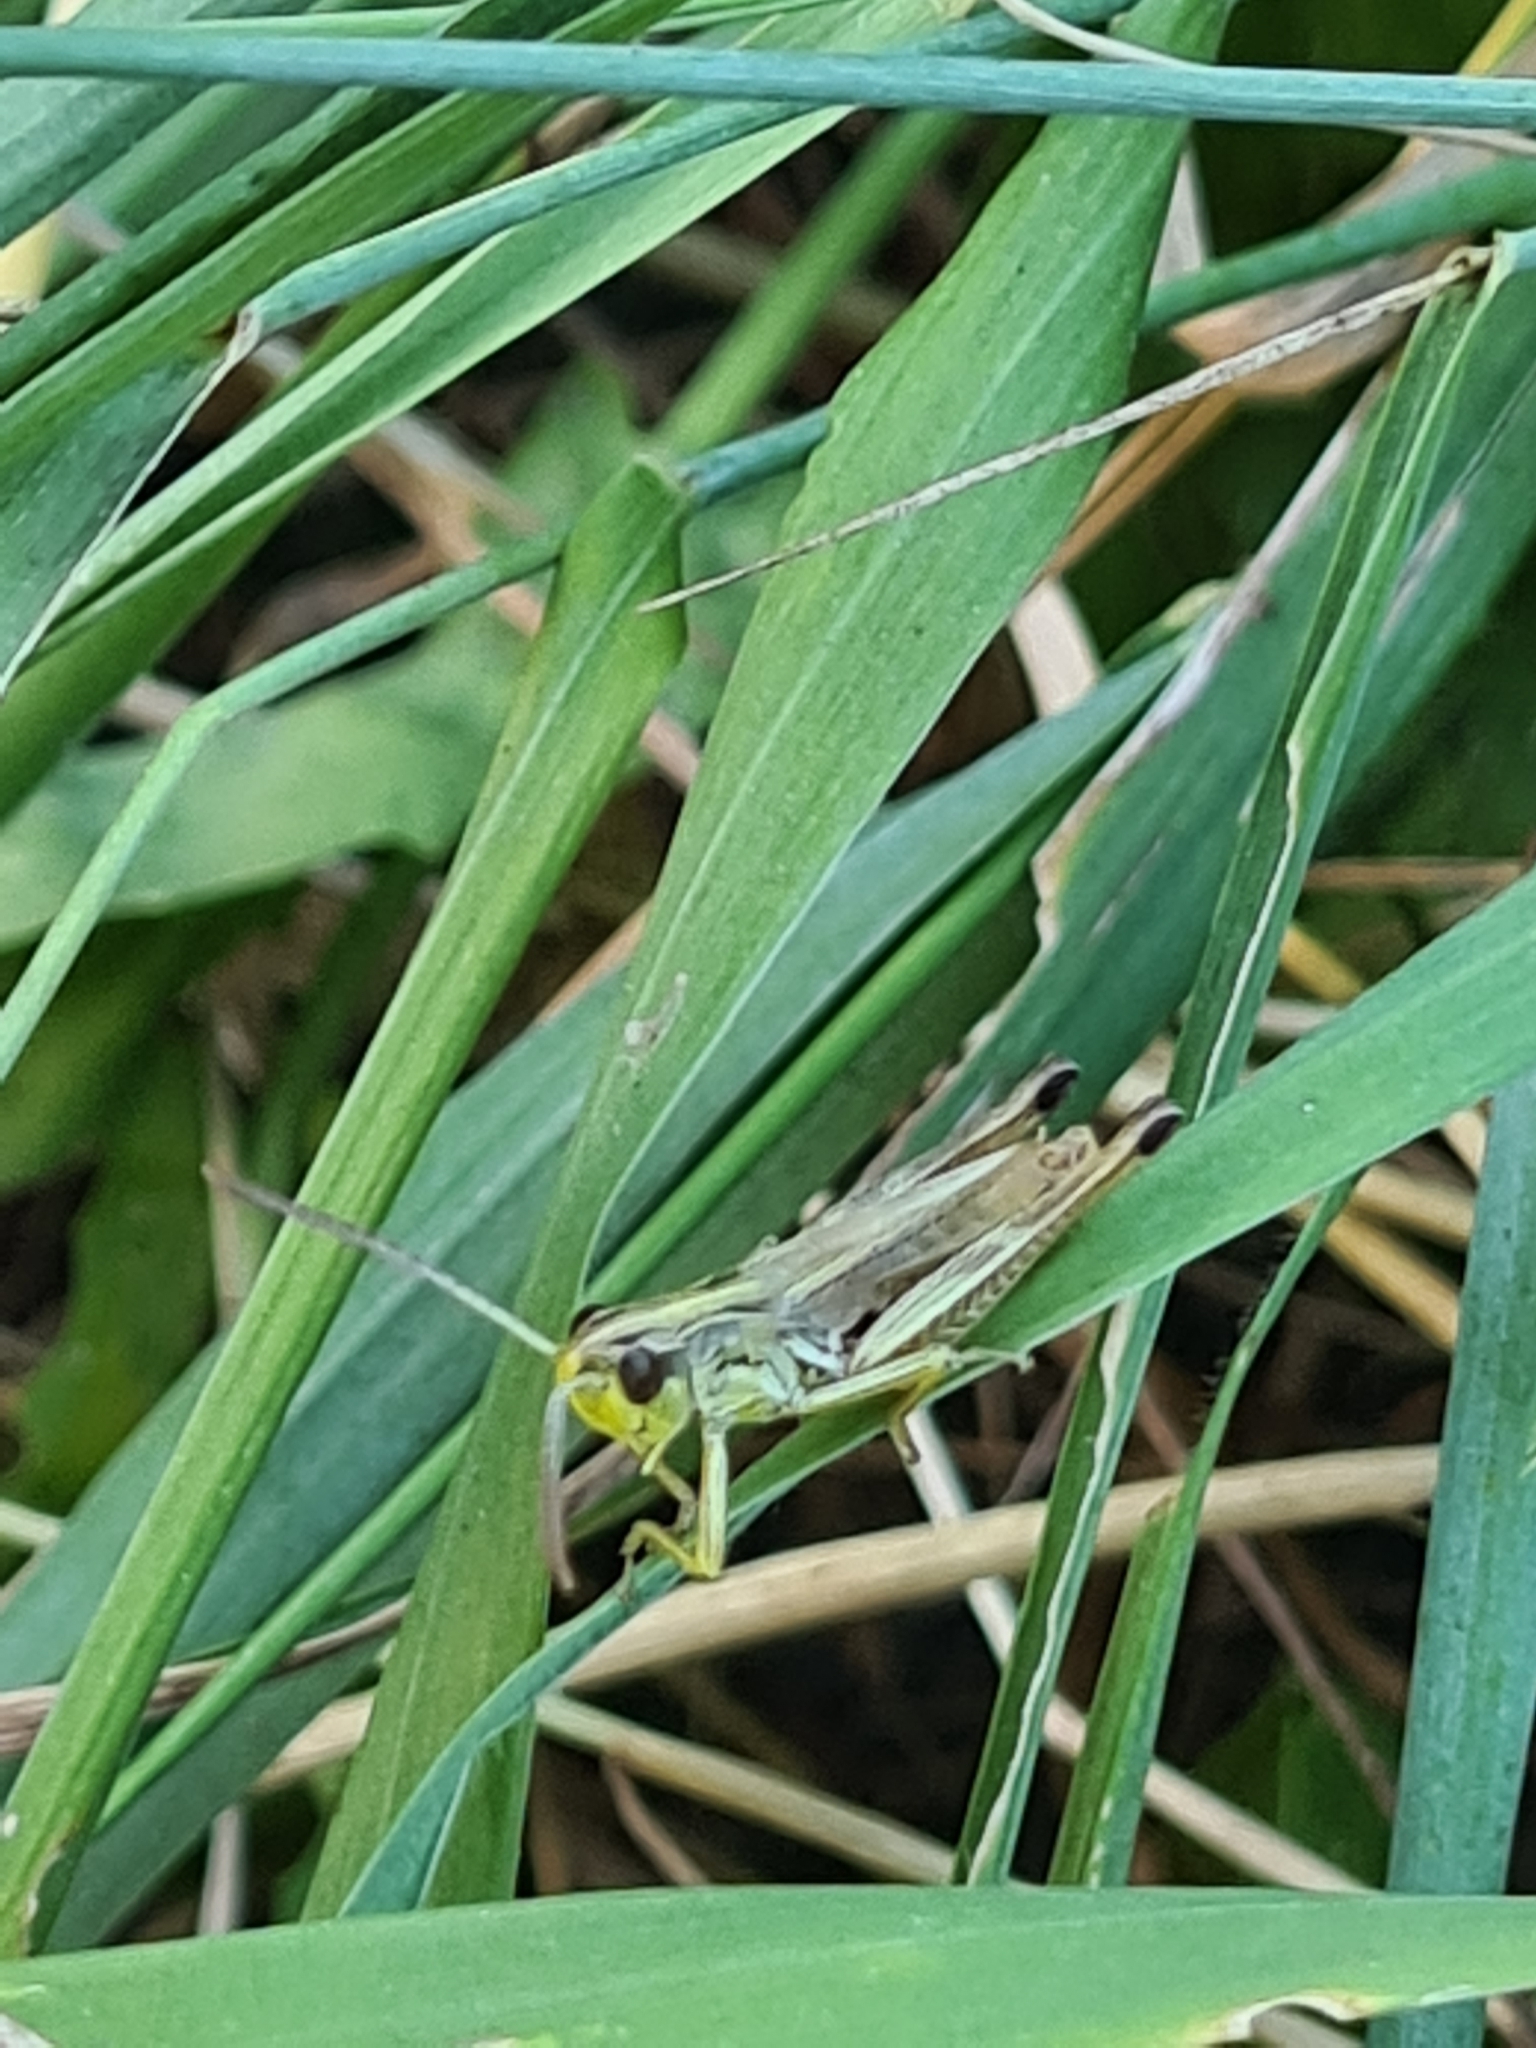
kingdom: Animalia
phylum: Arthropoda
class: Insecta
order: Orthoptera
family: Acrididae
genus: Pseudochorthippus
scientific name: Pseudochorthippus parallelus
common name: Meadow grasshopper
